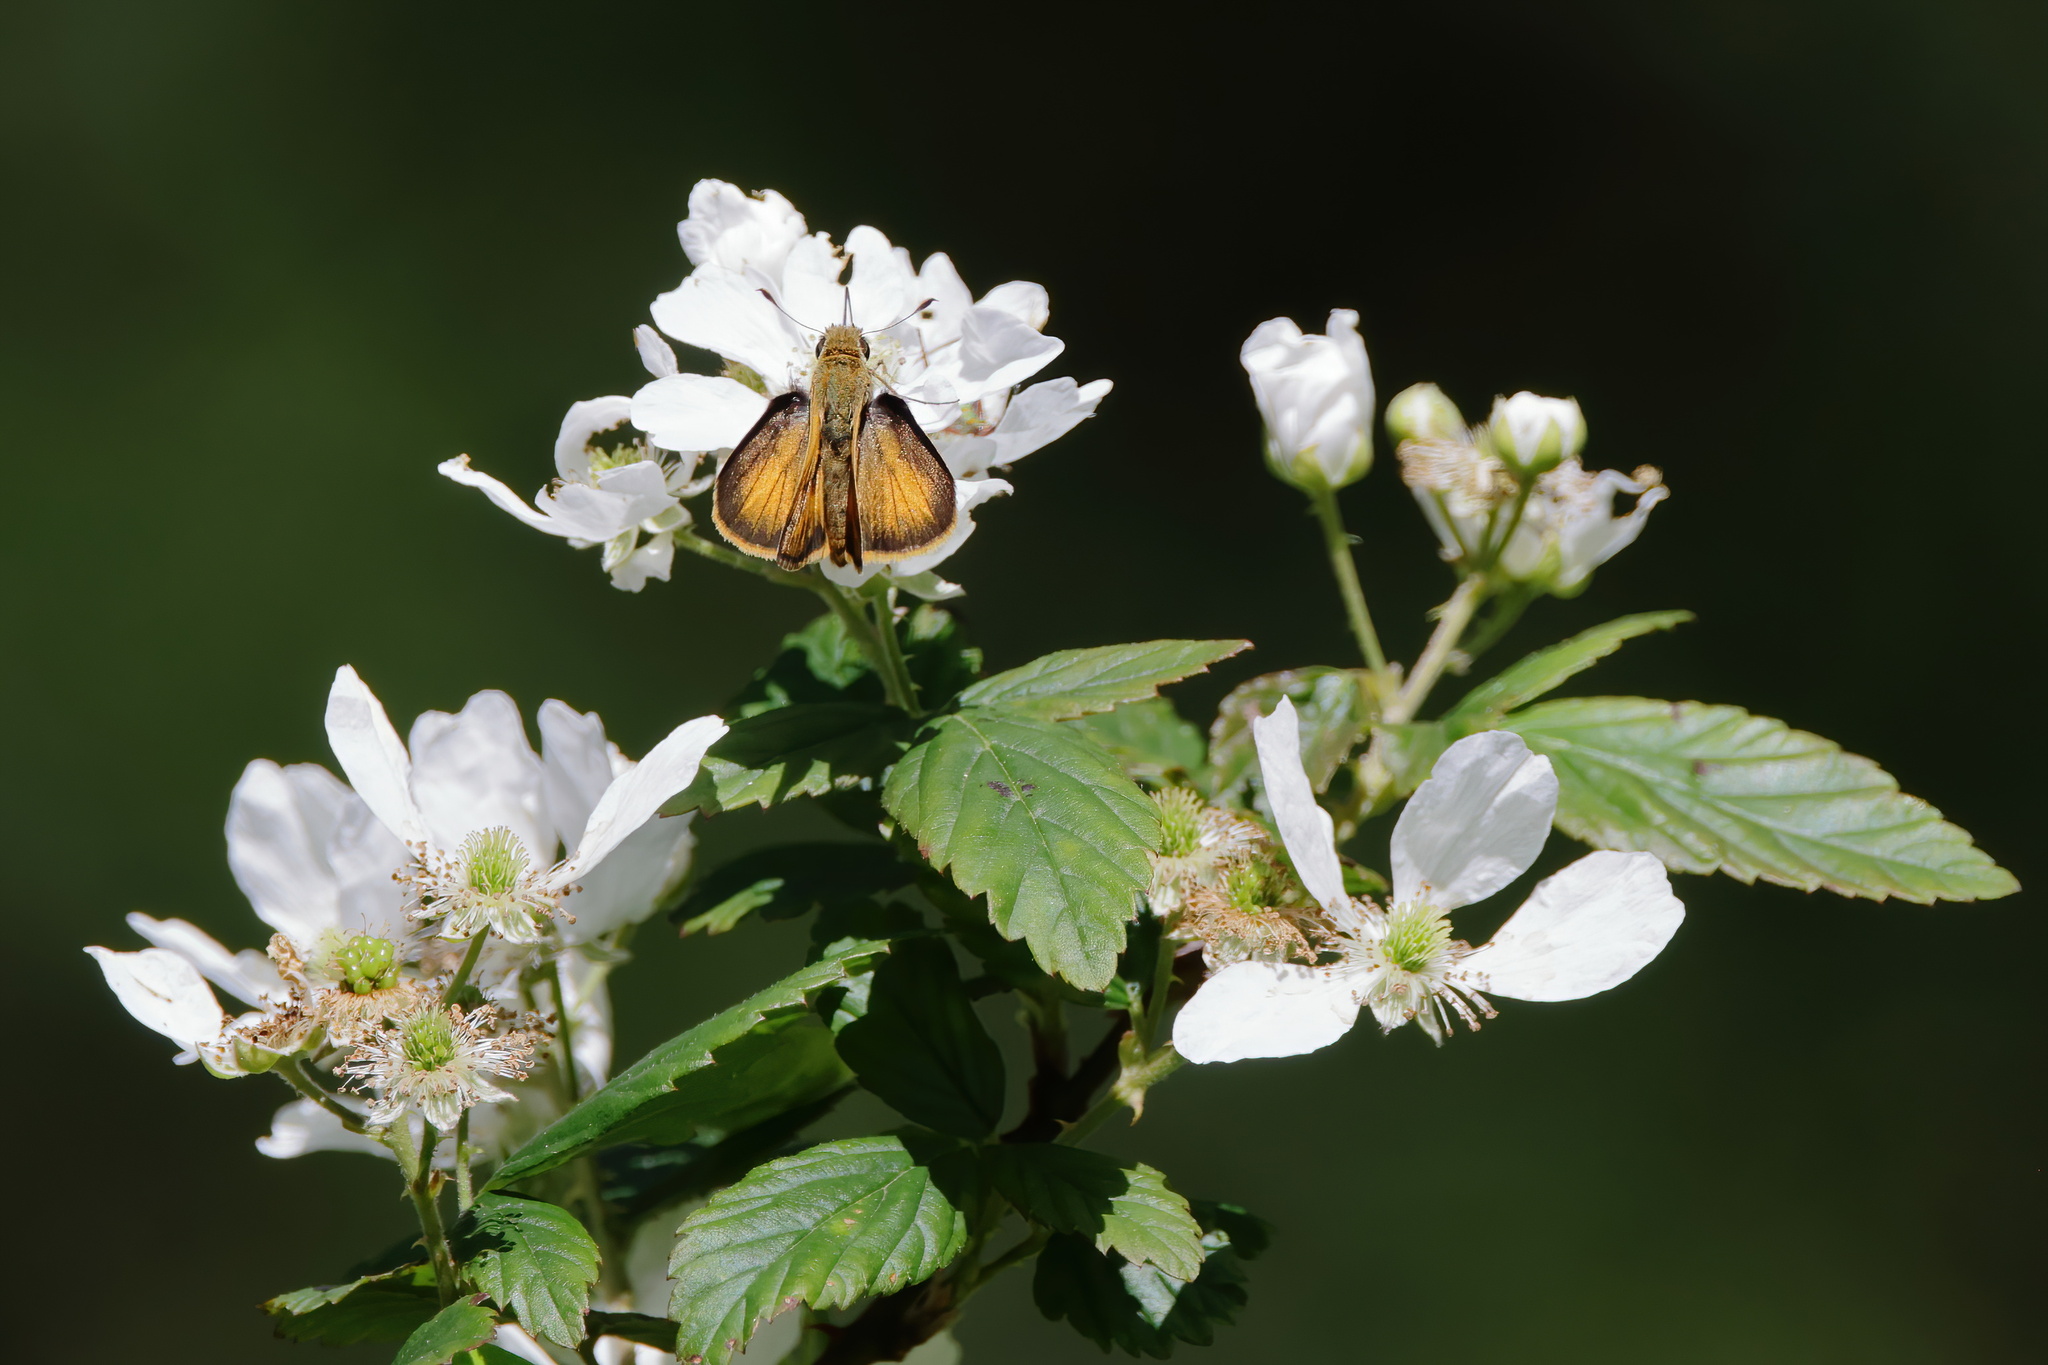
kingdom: Animalia
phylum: Arthropoda
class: Insecta
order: Lepidoptera
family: Hesperiidae
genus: Polites
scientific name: Polites vibex
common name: Whirlabout
